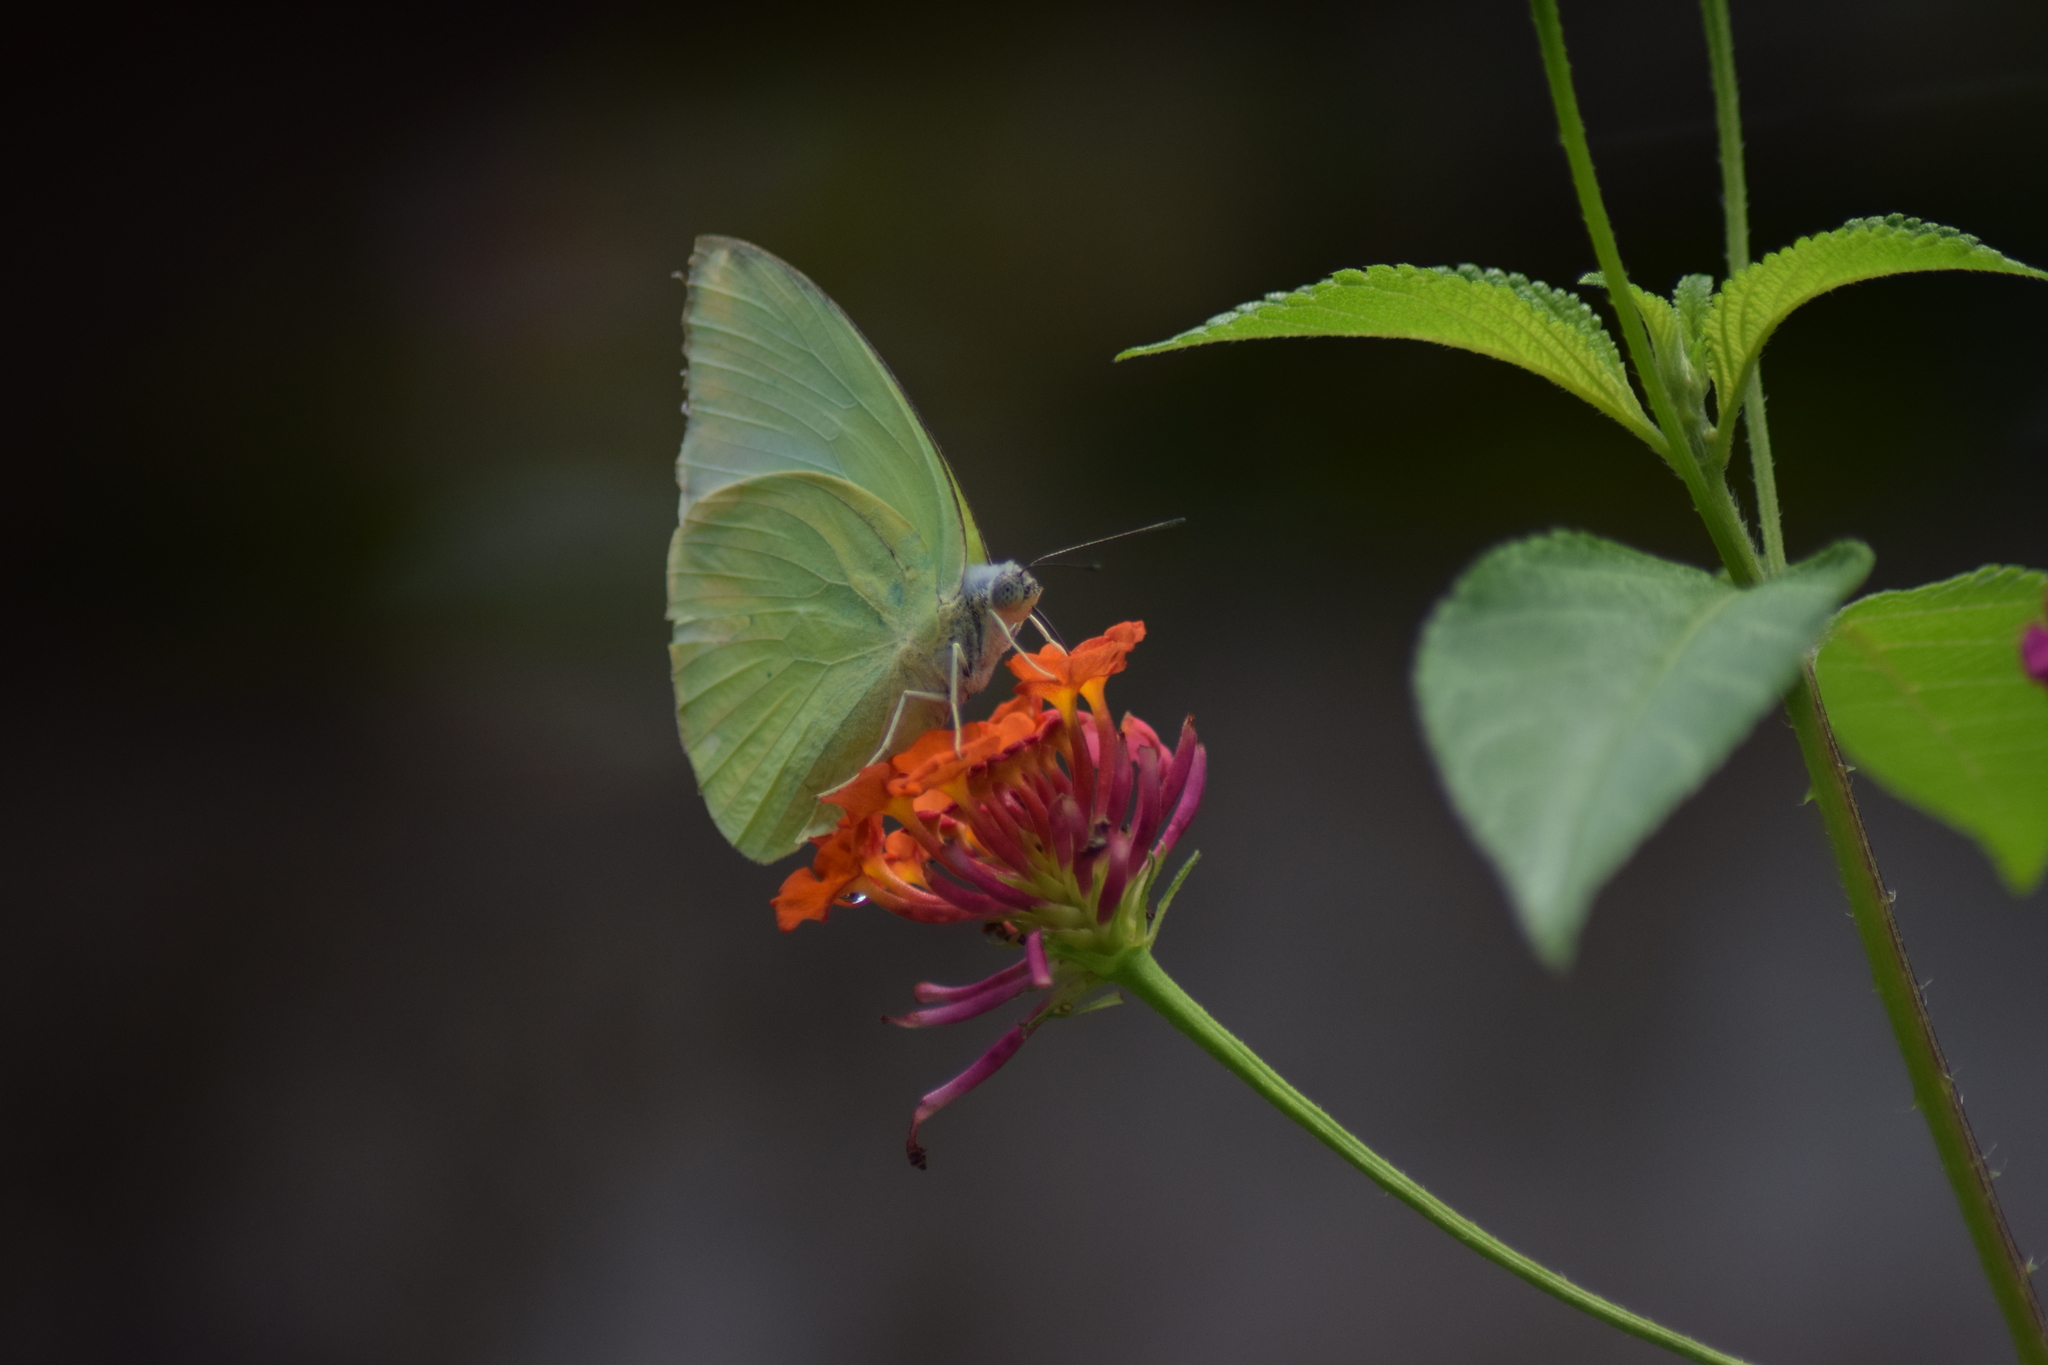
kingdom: Animalia
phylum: Arthropoda
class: Insecta
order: Lepidoptera
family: Pieridae
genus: Catopsilia
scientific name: Catopsilia pomona
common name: Common emigrant
